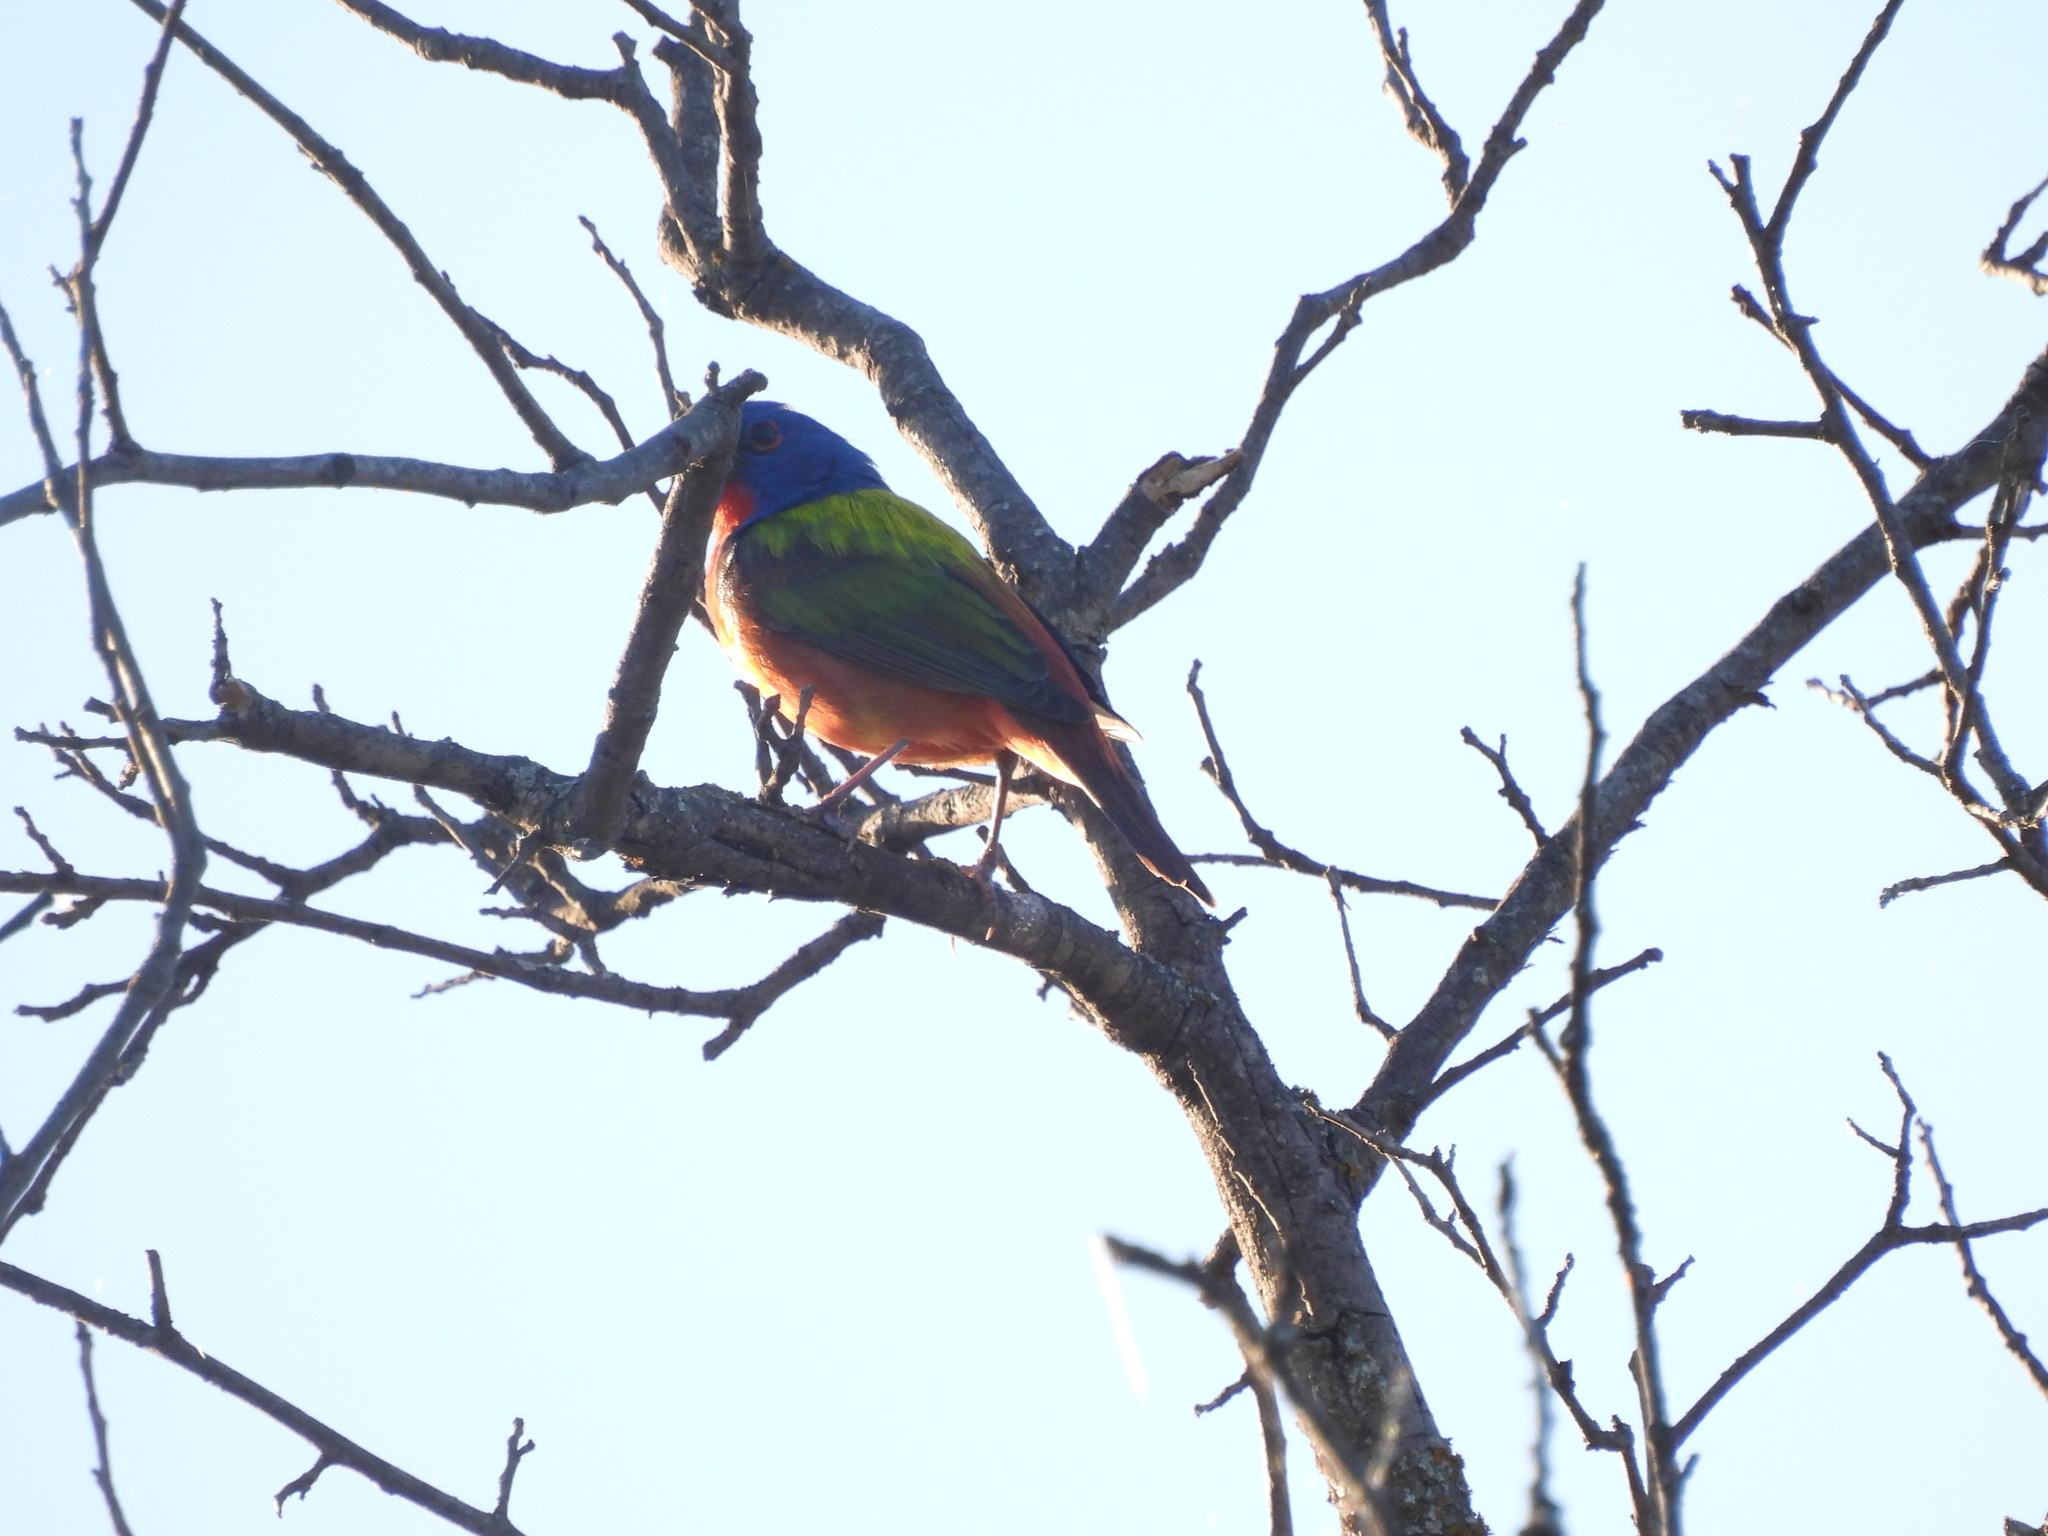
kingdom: Animalia
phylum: Chordata
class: Aves
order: Passeriformes
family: Cardinalidae
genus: Passerina
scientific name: Passerina ciris
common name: Painted bunting
